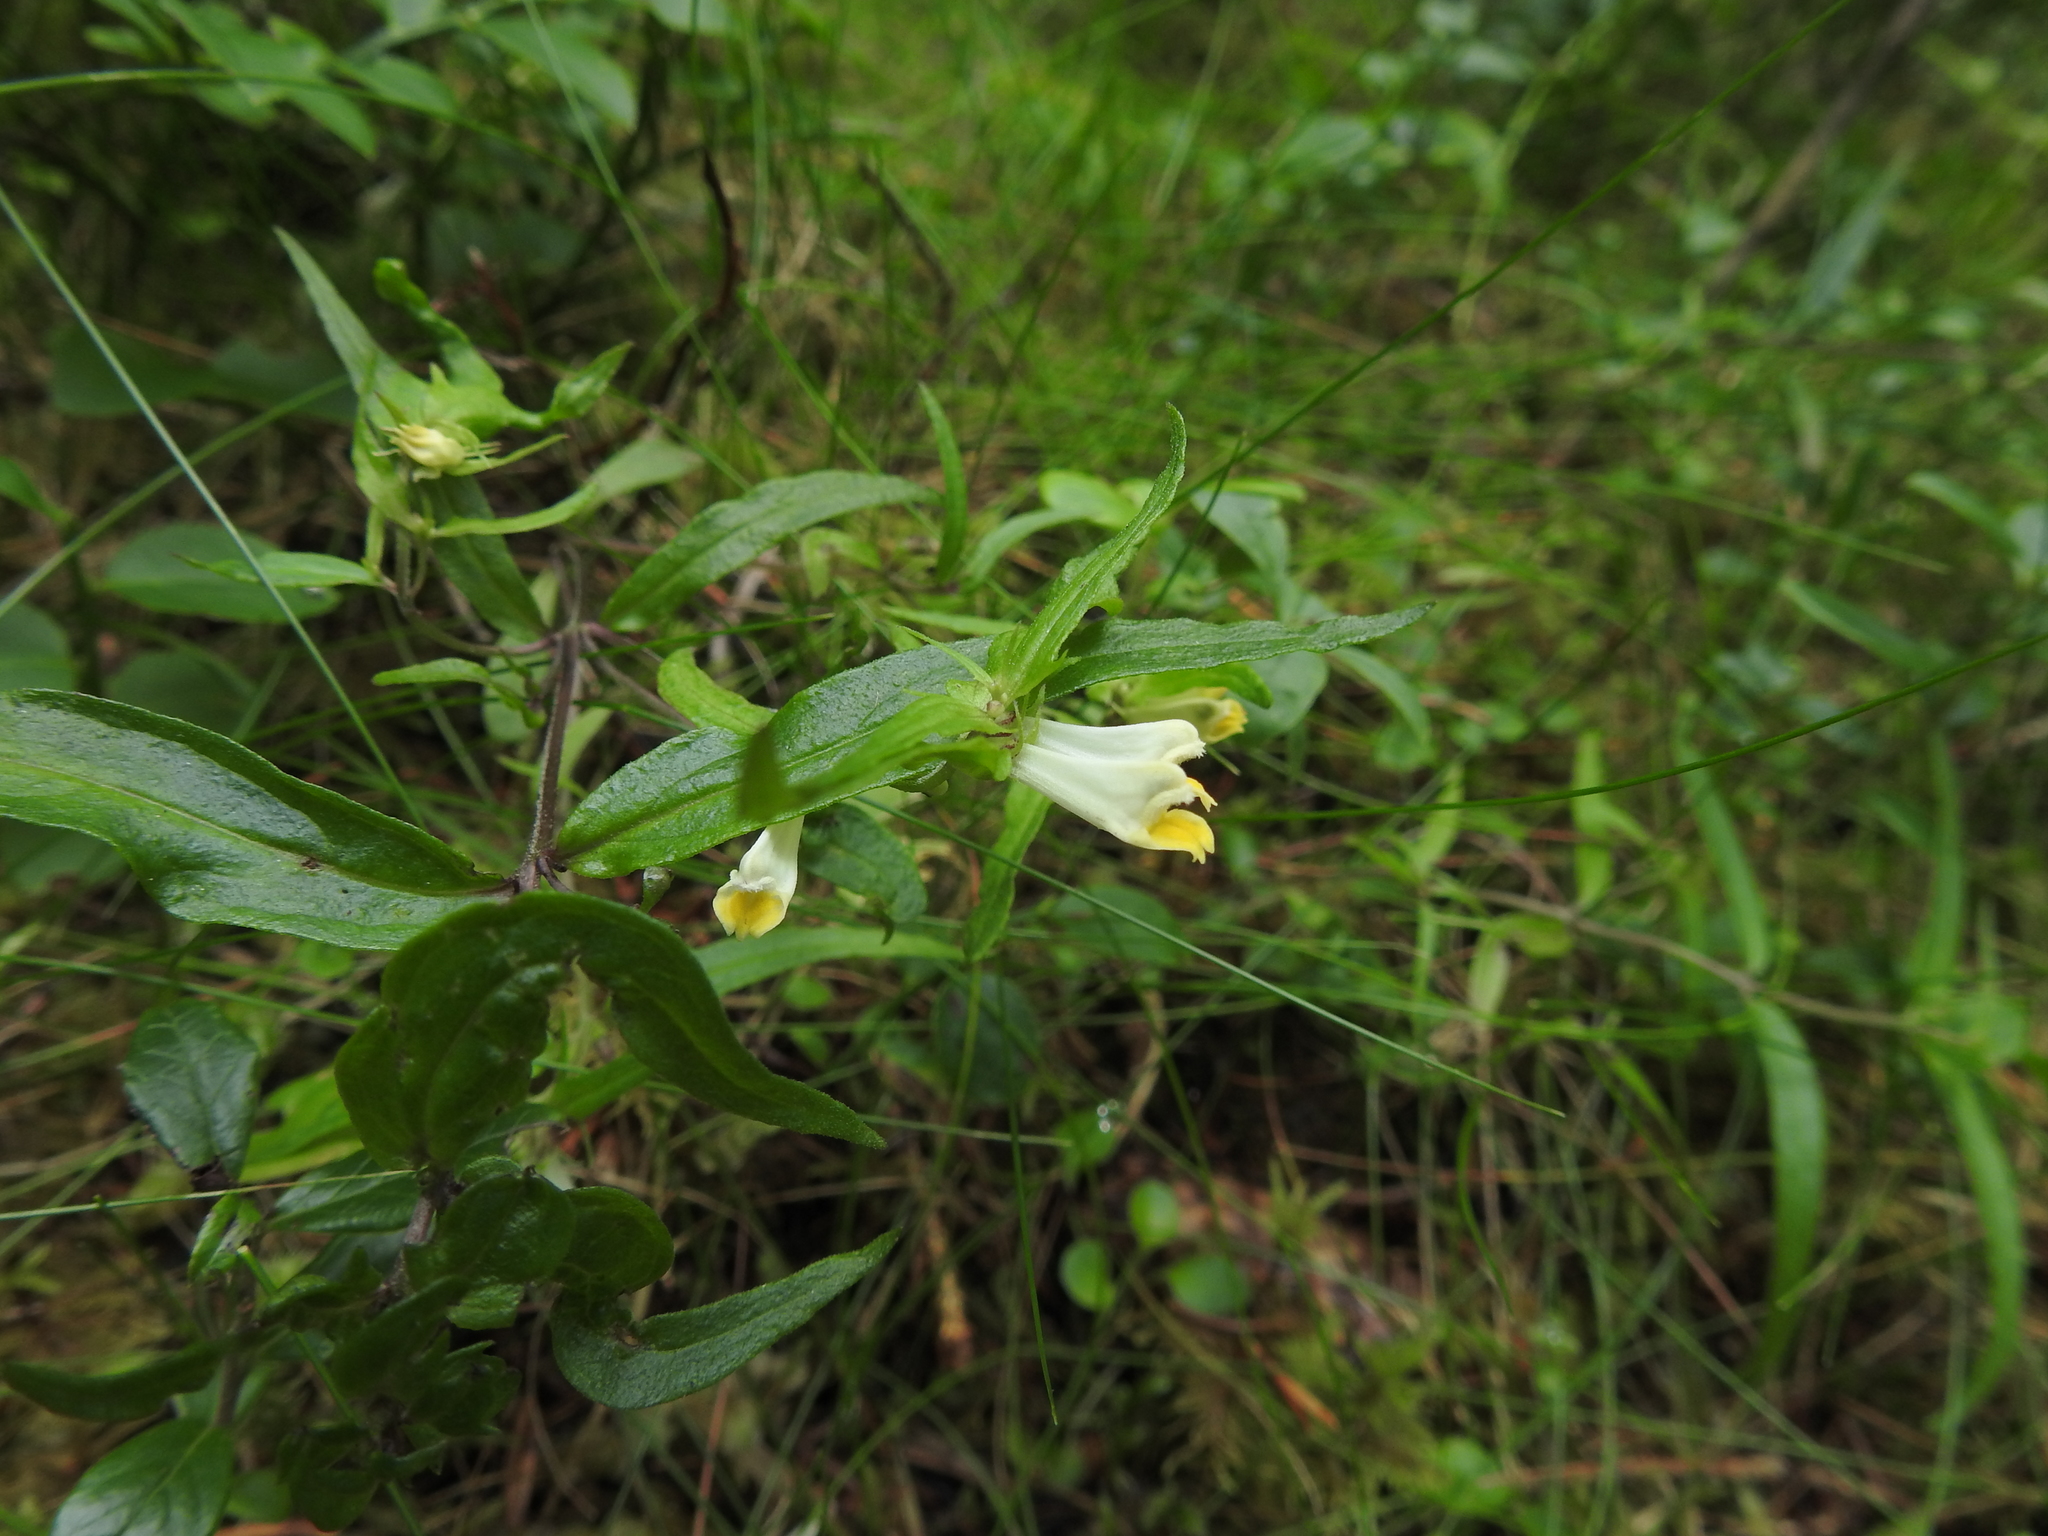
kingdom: Plantae
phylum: Tracheophyta
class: Magnoliopsida
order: Lamiales
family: Orobanchaceae
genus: Melampyrum
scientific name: Melampyrum pratense
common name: Common cow-wheat
